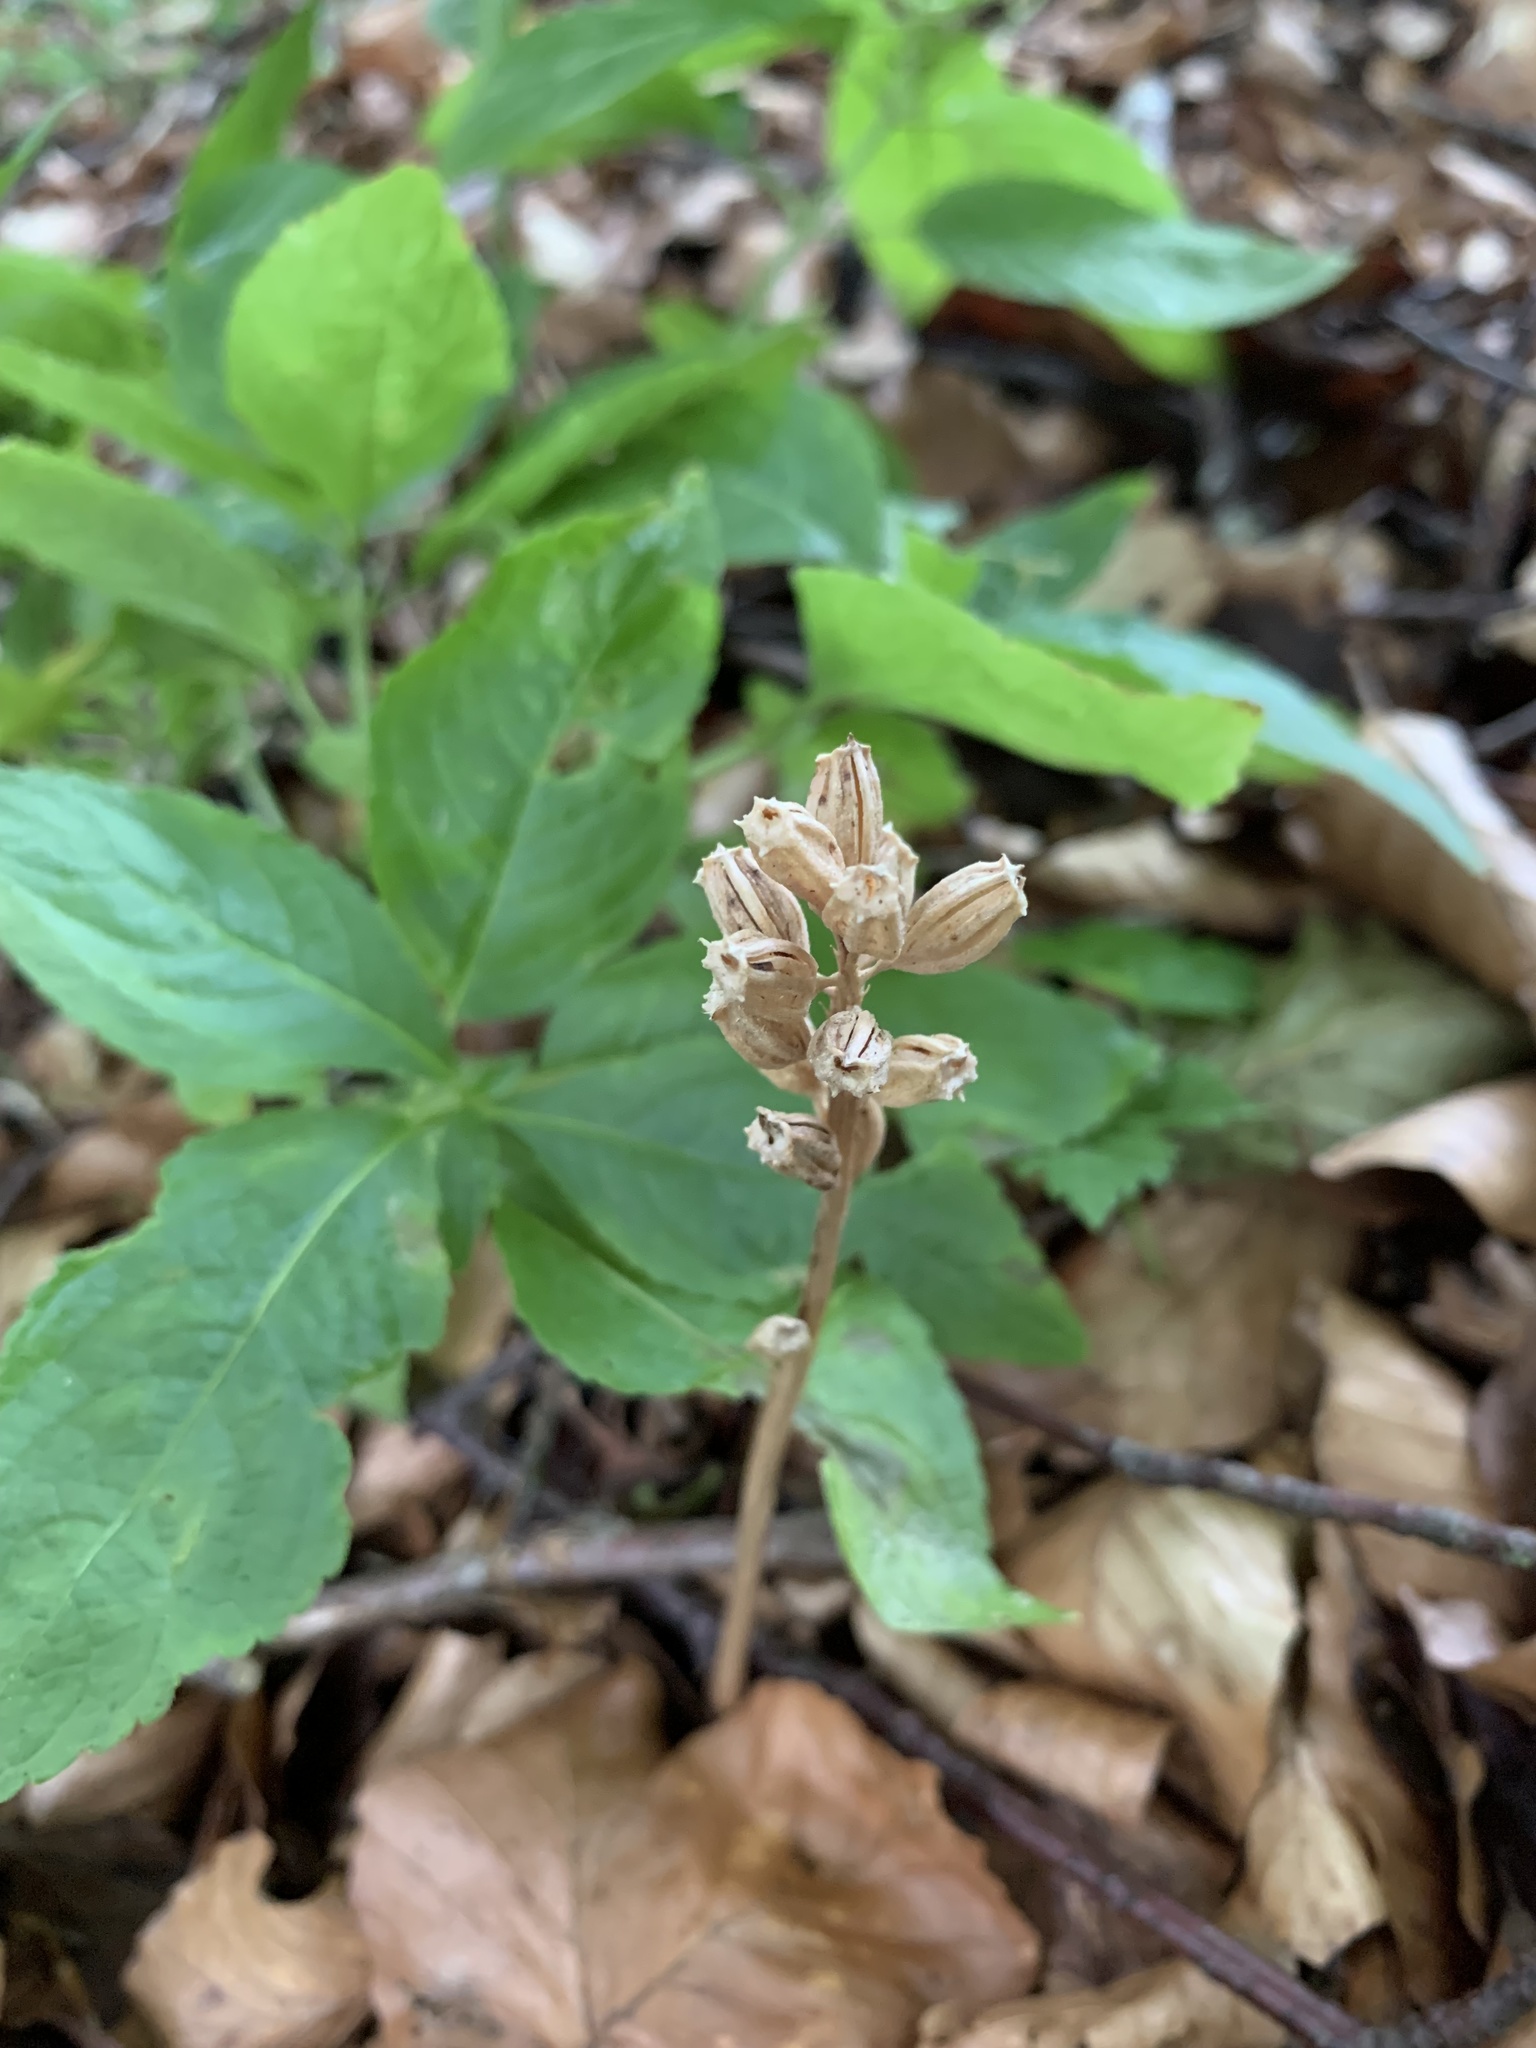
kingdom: Plantae
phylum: Tracheophyta
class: Liliopsida
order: Asparagales
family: Orchidaceae
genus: Neottia
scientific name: Neottia nidus-avis
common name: Bird's-nest orchid
